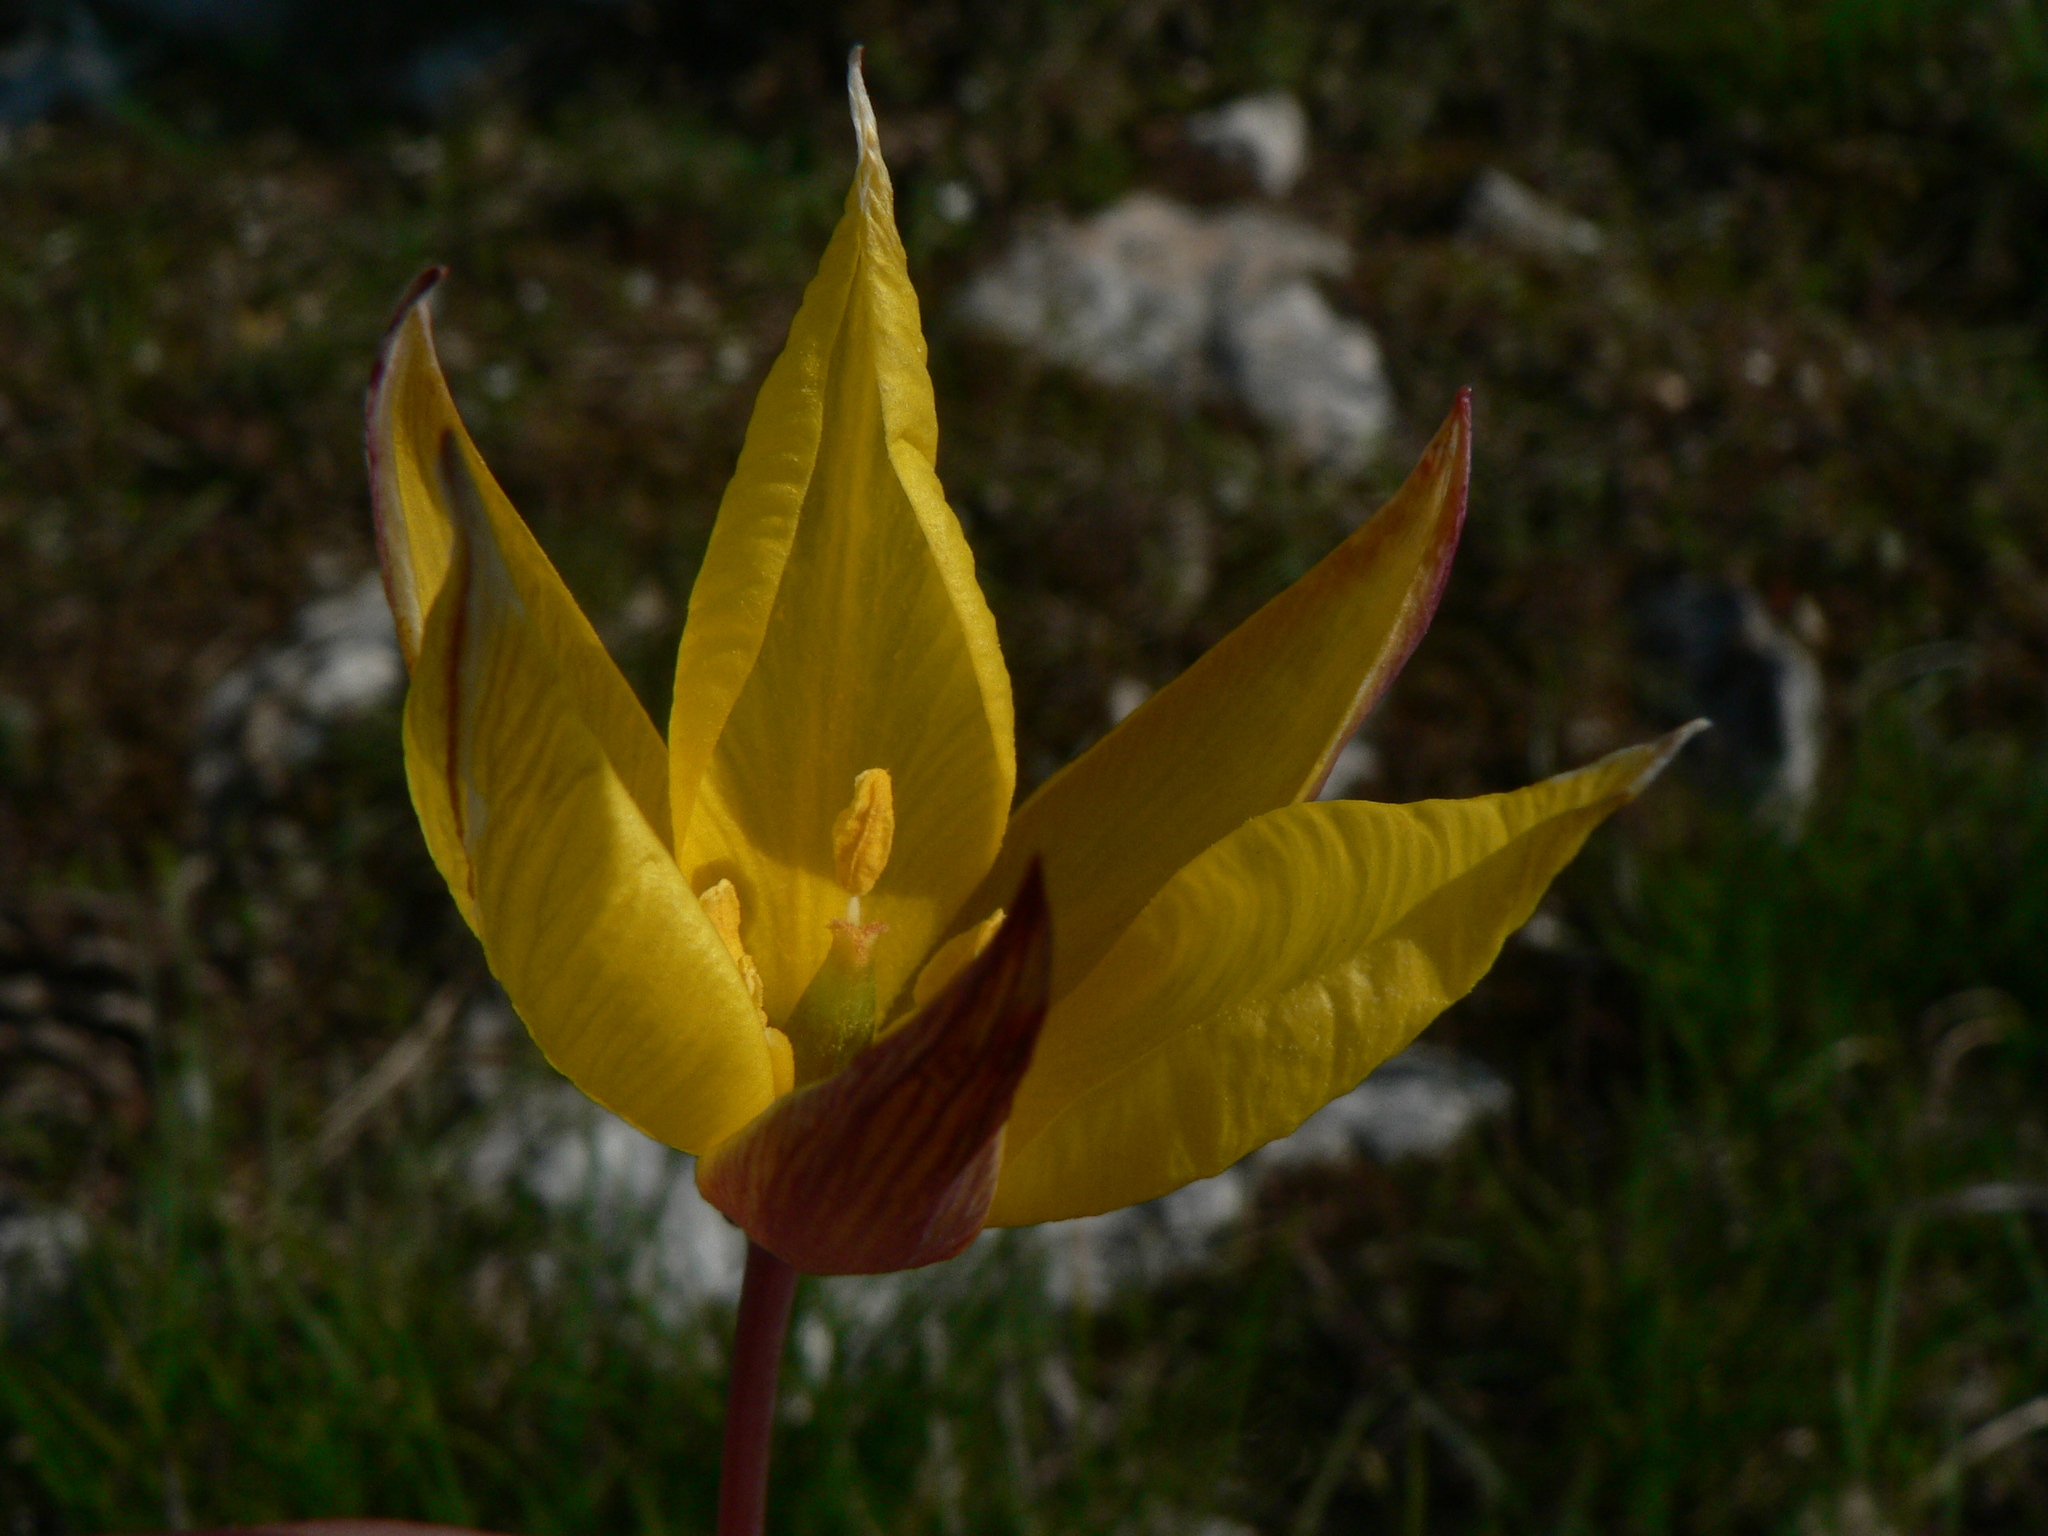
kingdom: Plantae
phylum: Tracheophyta
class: Liliopsida
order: Liliales
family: Liliaceae
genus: Tulipa
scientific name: Tulipa sylvestris
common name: Wild tulip
